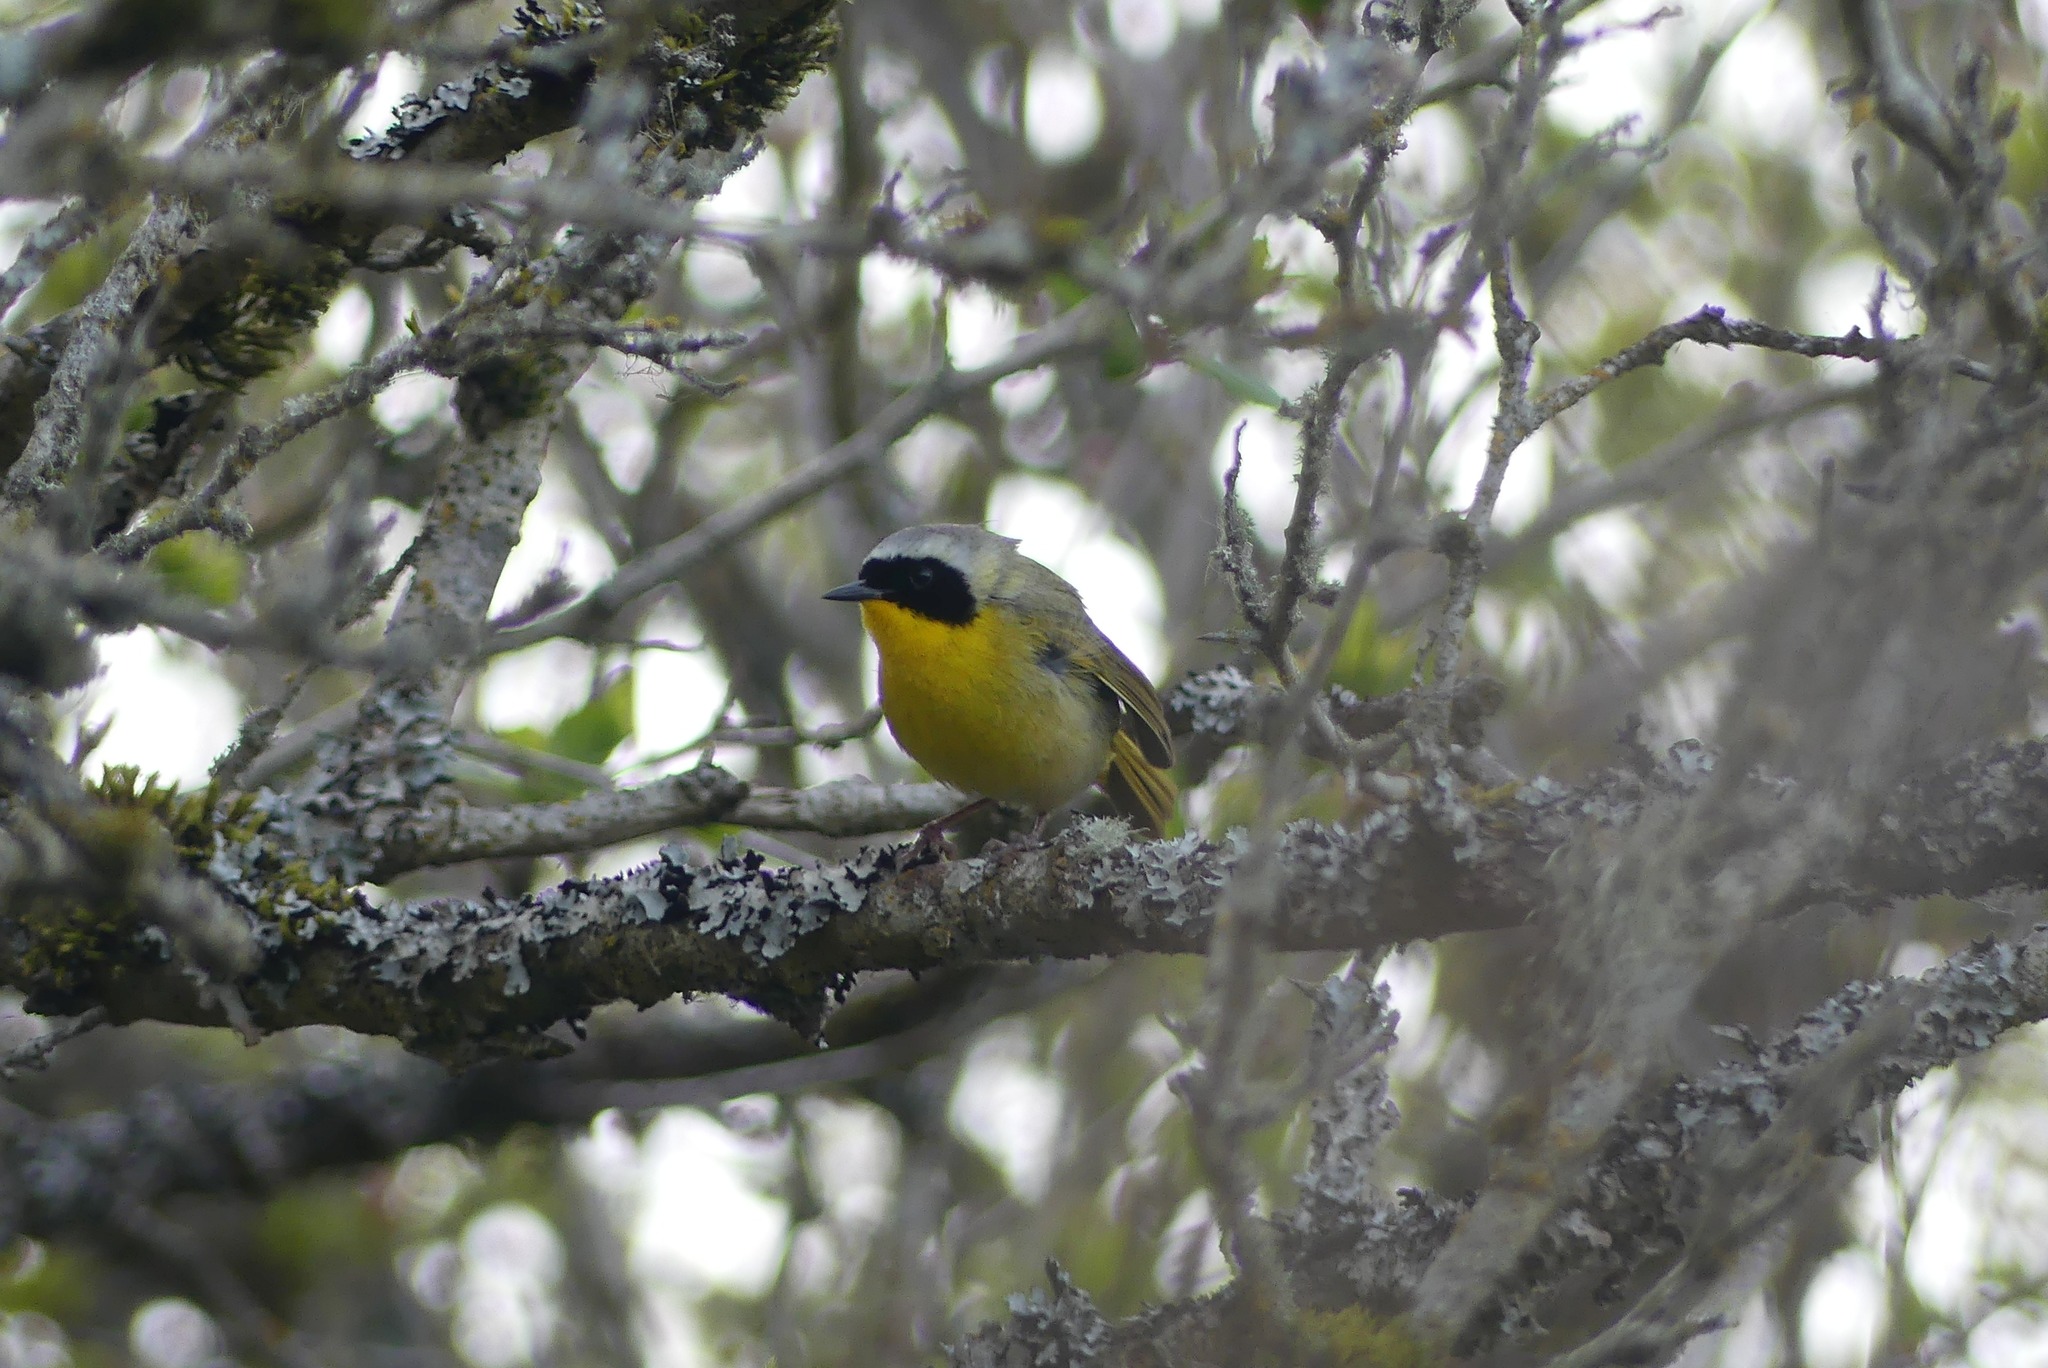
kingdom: Animalia
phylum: Chordata
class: Aves
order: Passeriformes
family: Parulidae
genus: Geothlypis
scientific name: Geothlypis trichas
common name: Common yellowthroat
